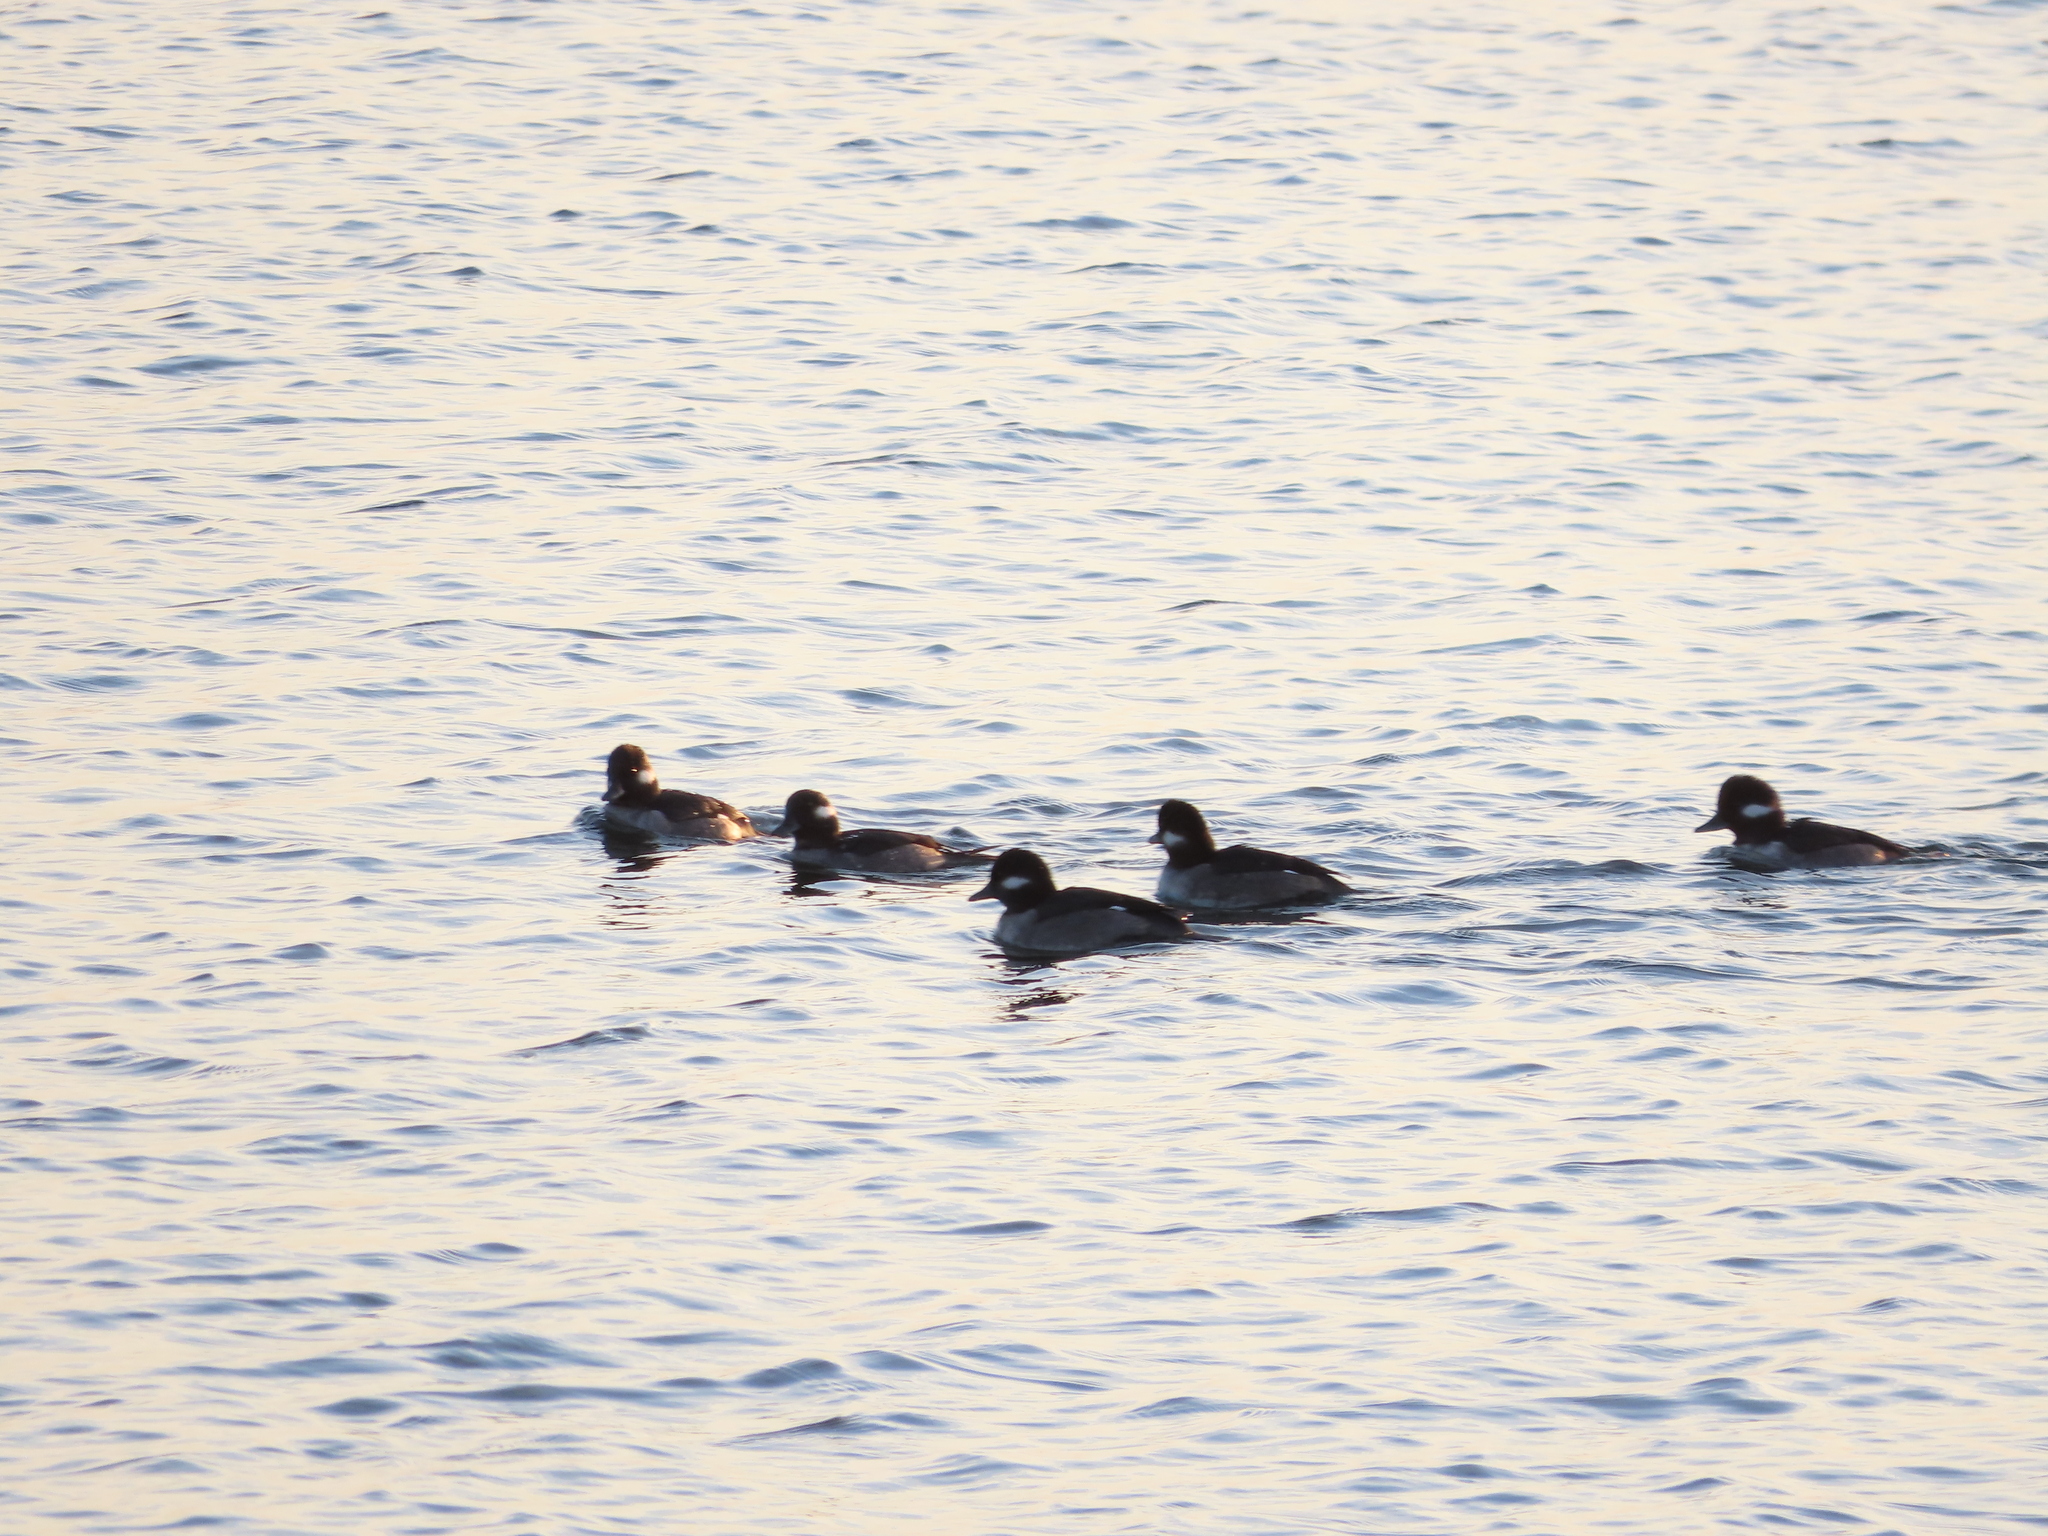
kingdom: Animalia
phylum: Chordata
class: Aves
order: Anseriformes
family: Anatidae
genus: Bucephala
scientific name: Bucephala albeola
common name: Bufflehead
